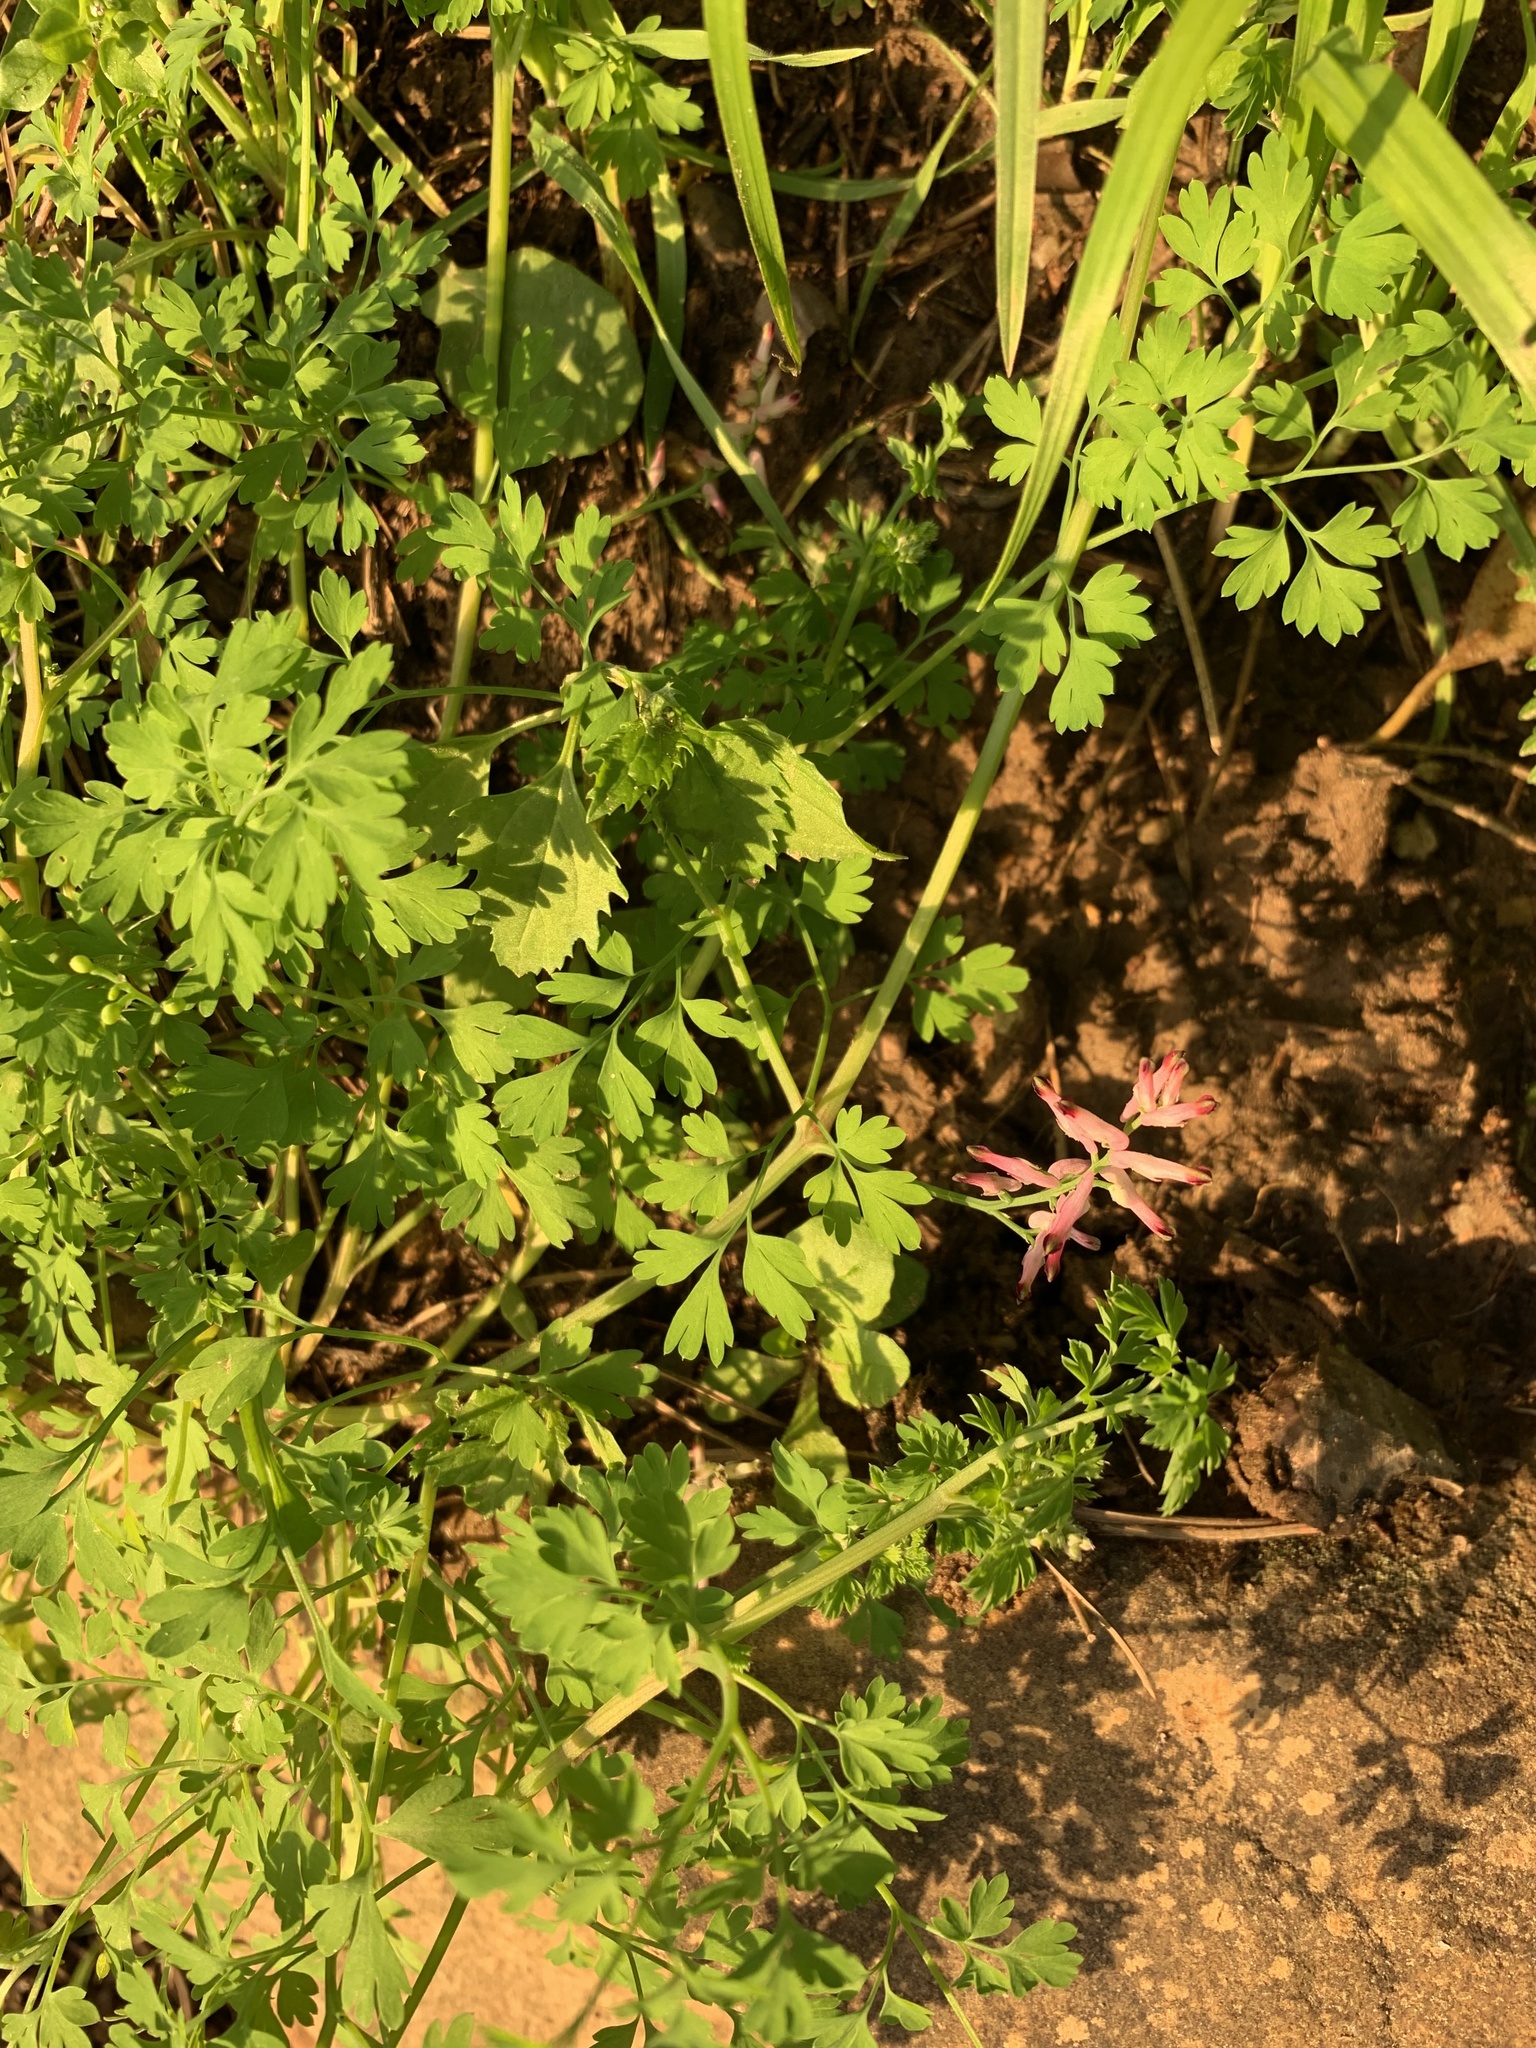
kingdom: Plantae
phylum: Tracheophyta
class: Magnoliopsida
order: Ranunculales
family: Papaveraceae
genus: Fumaria
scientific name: Fumaria muralis
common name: Common ramping-fumitory
